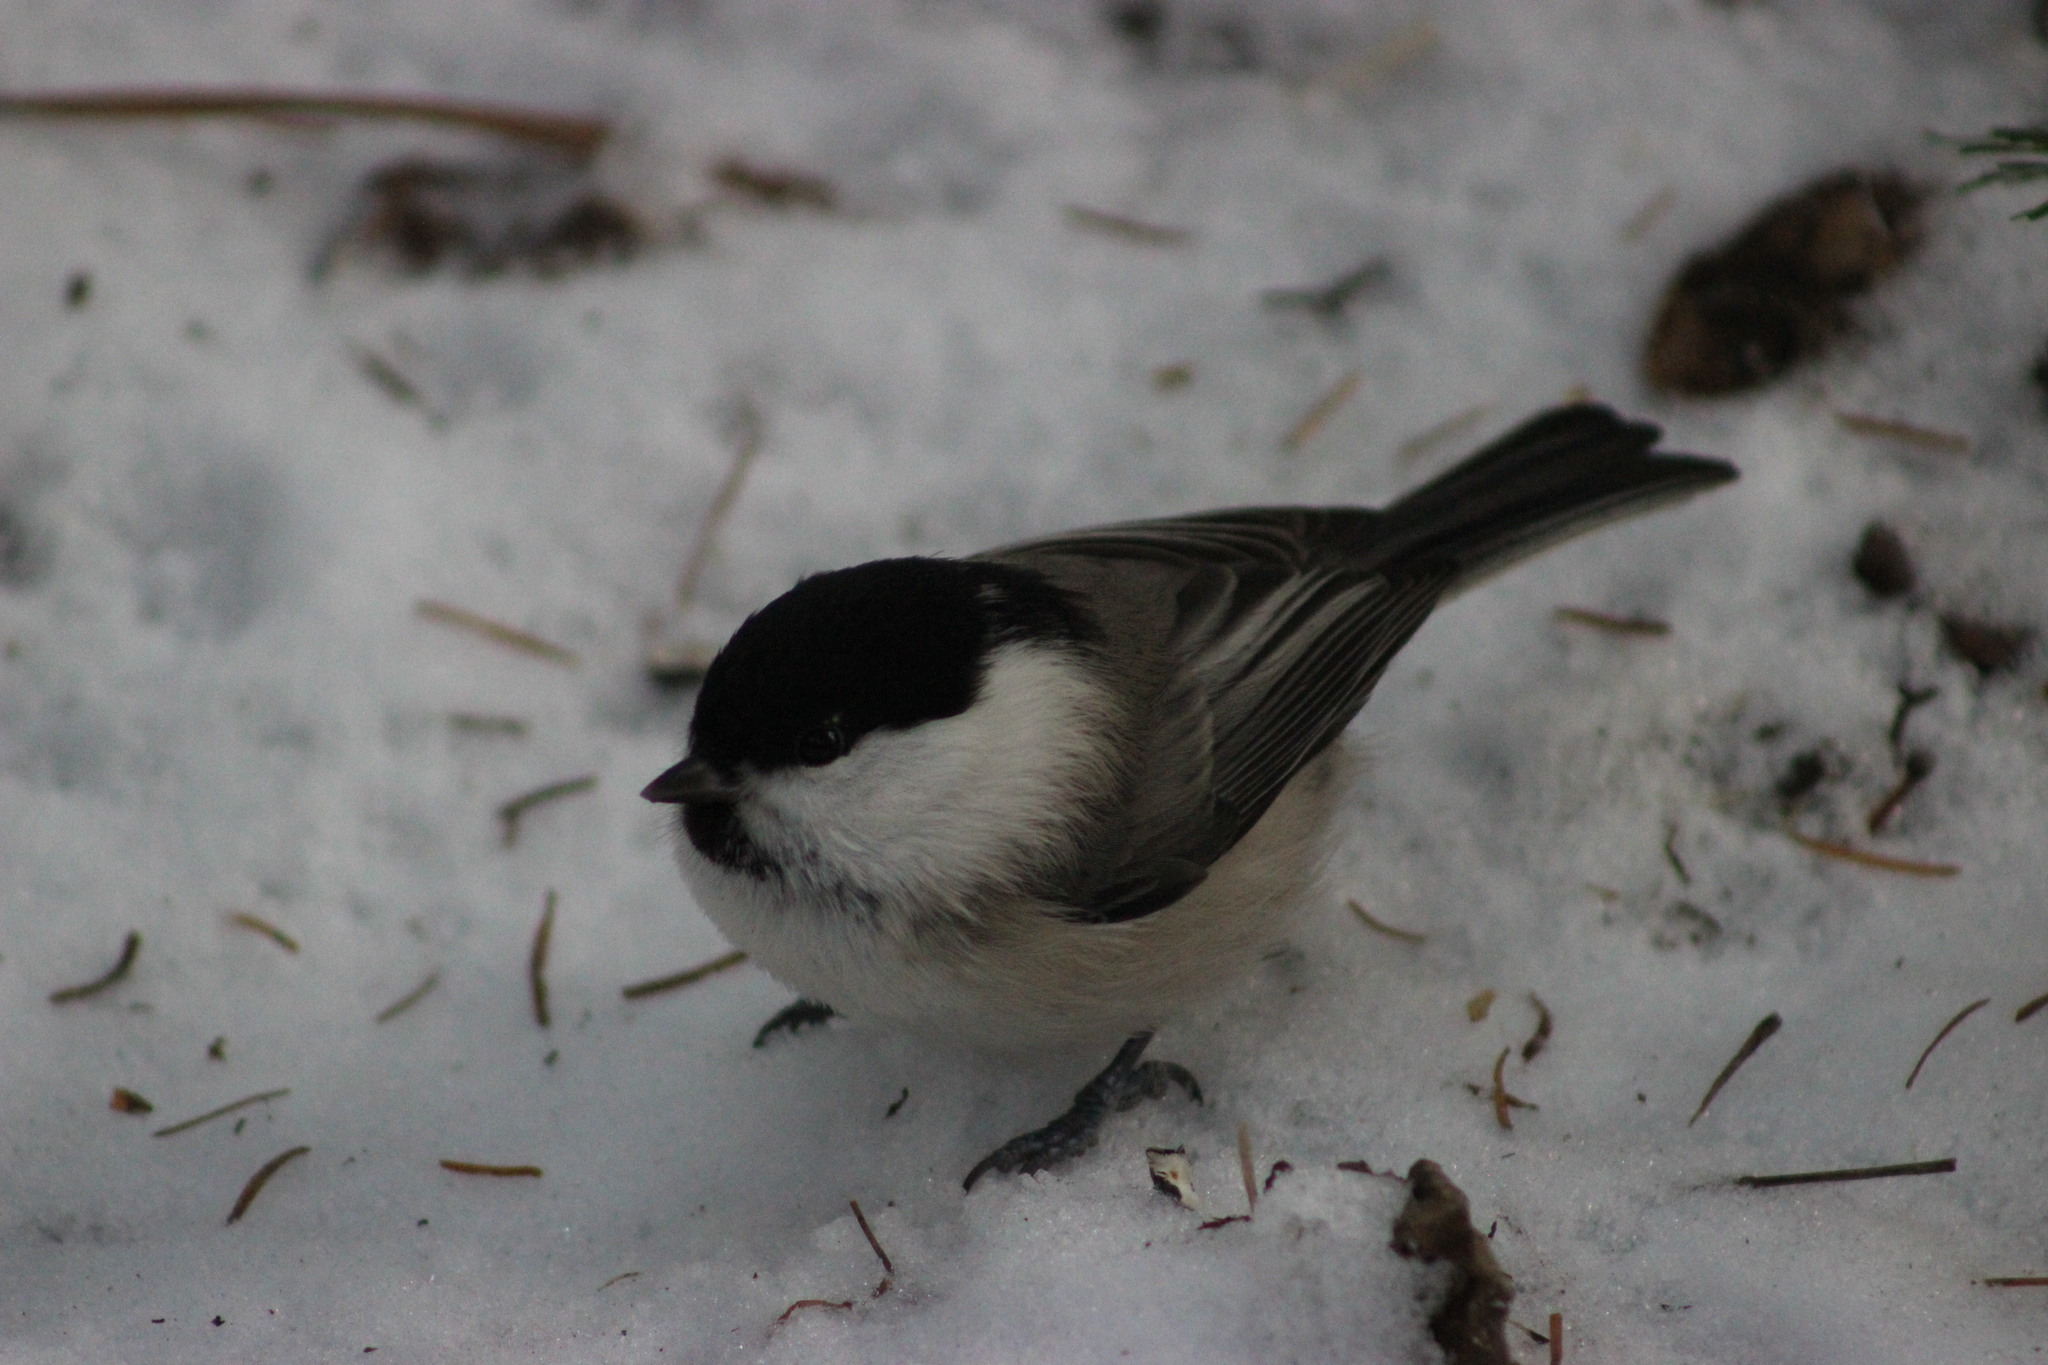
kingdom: Animalia
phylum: Chordata
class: Aves
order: Passeriformes
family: Paridae
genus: Poecile
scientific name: Poecile montanus
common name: Willow tit
